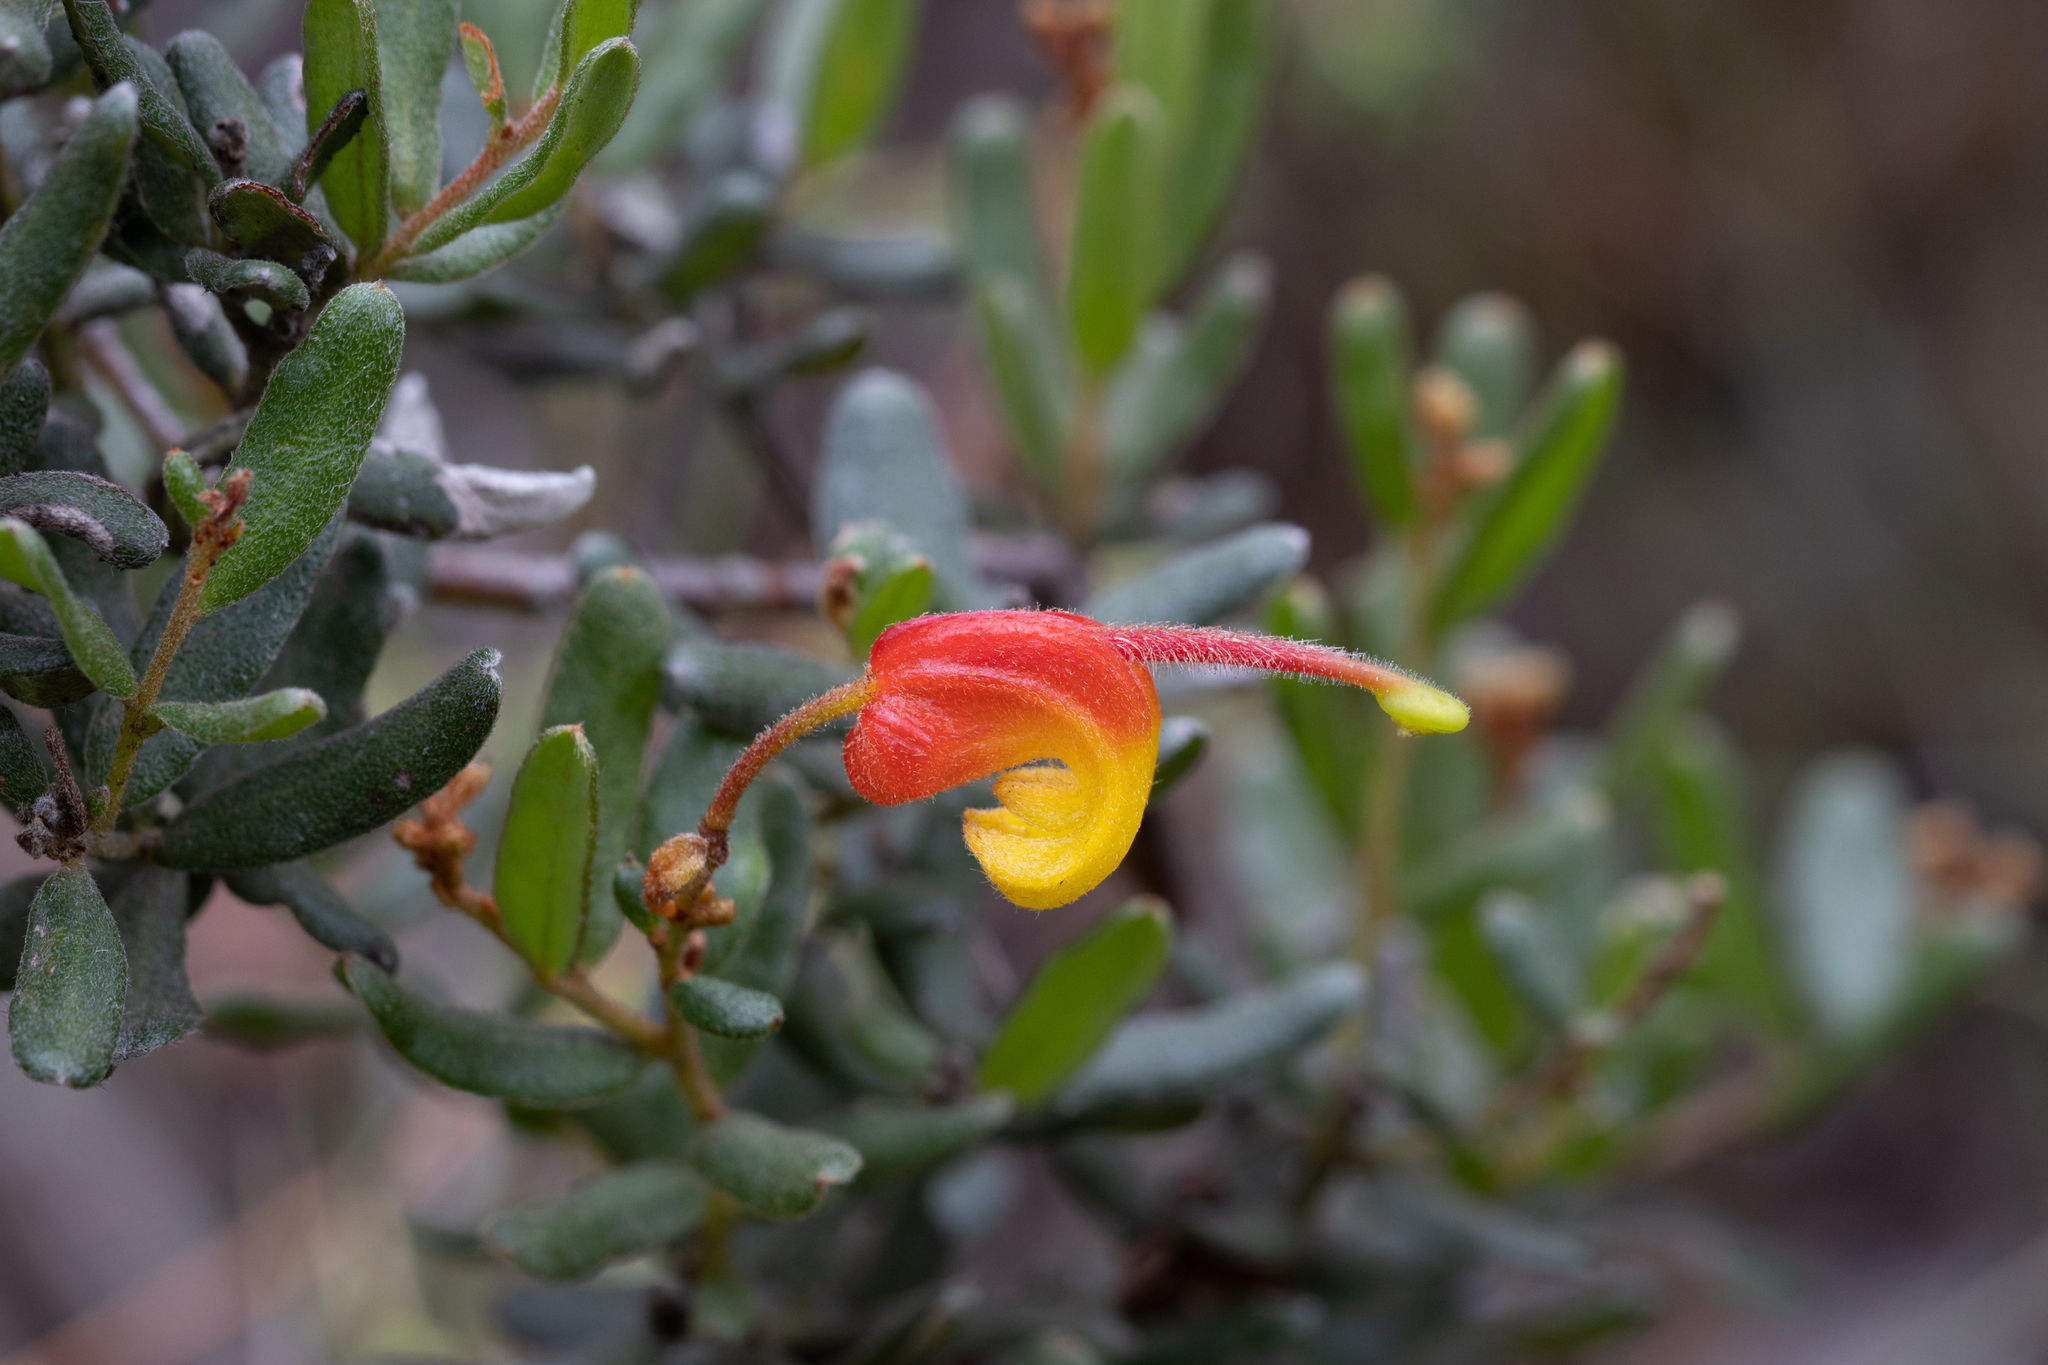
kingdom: Plantae
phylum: Tracheophyta
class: Magnoliopsida
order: Proteales
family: Proteaceae
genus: Grevillea
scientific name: Grevillea alpina
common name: Catclaws grevillea
